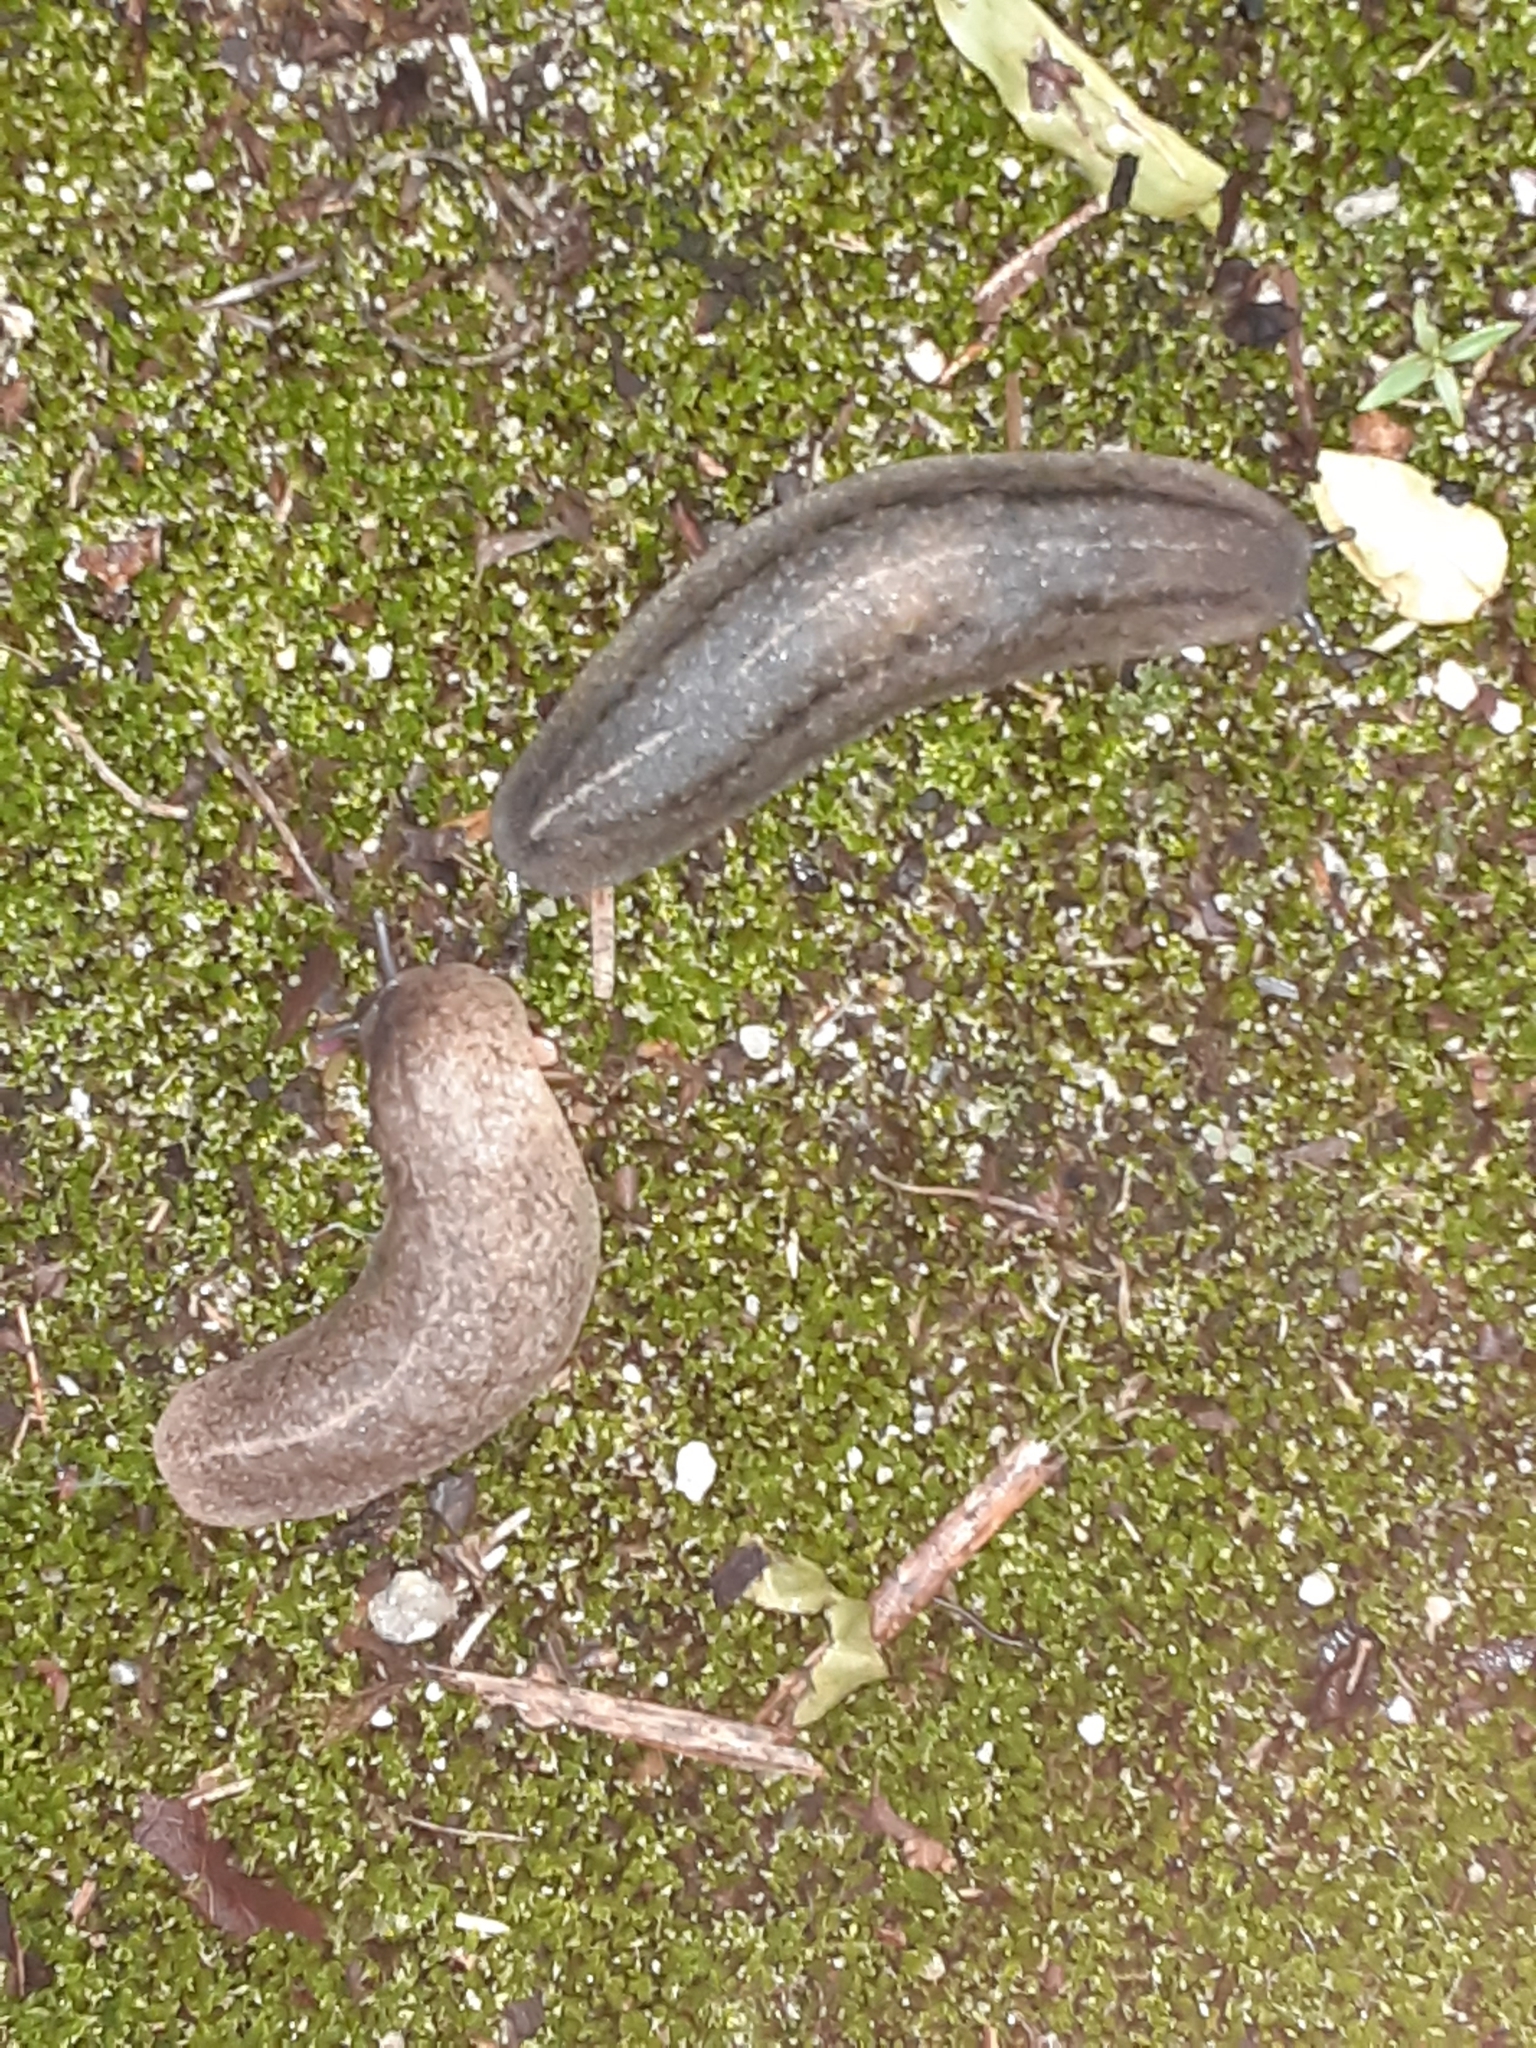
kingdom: Animalia
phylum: Mollusca
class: Gastropoda
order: Systellommatophora
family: Veronicellidae
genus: Leidyula
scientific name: Leidyula floridana
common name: Florida leatherleaf
